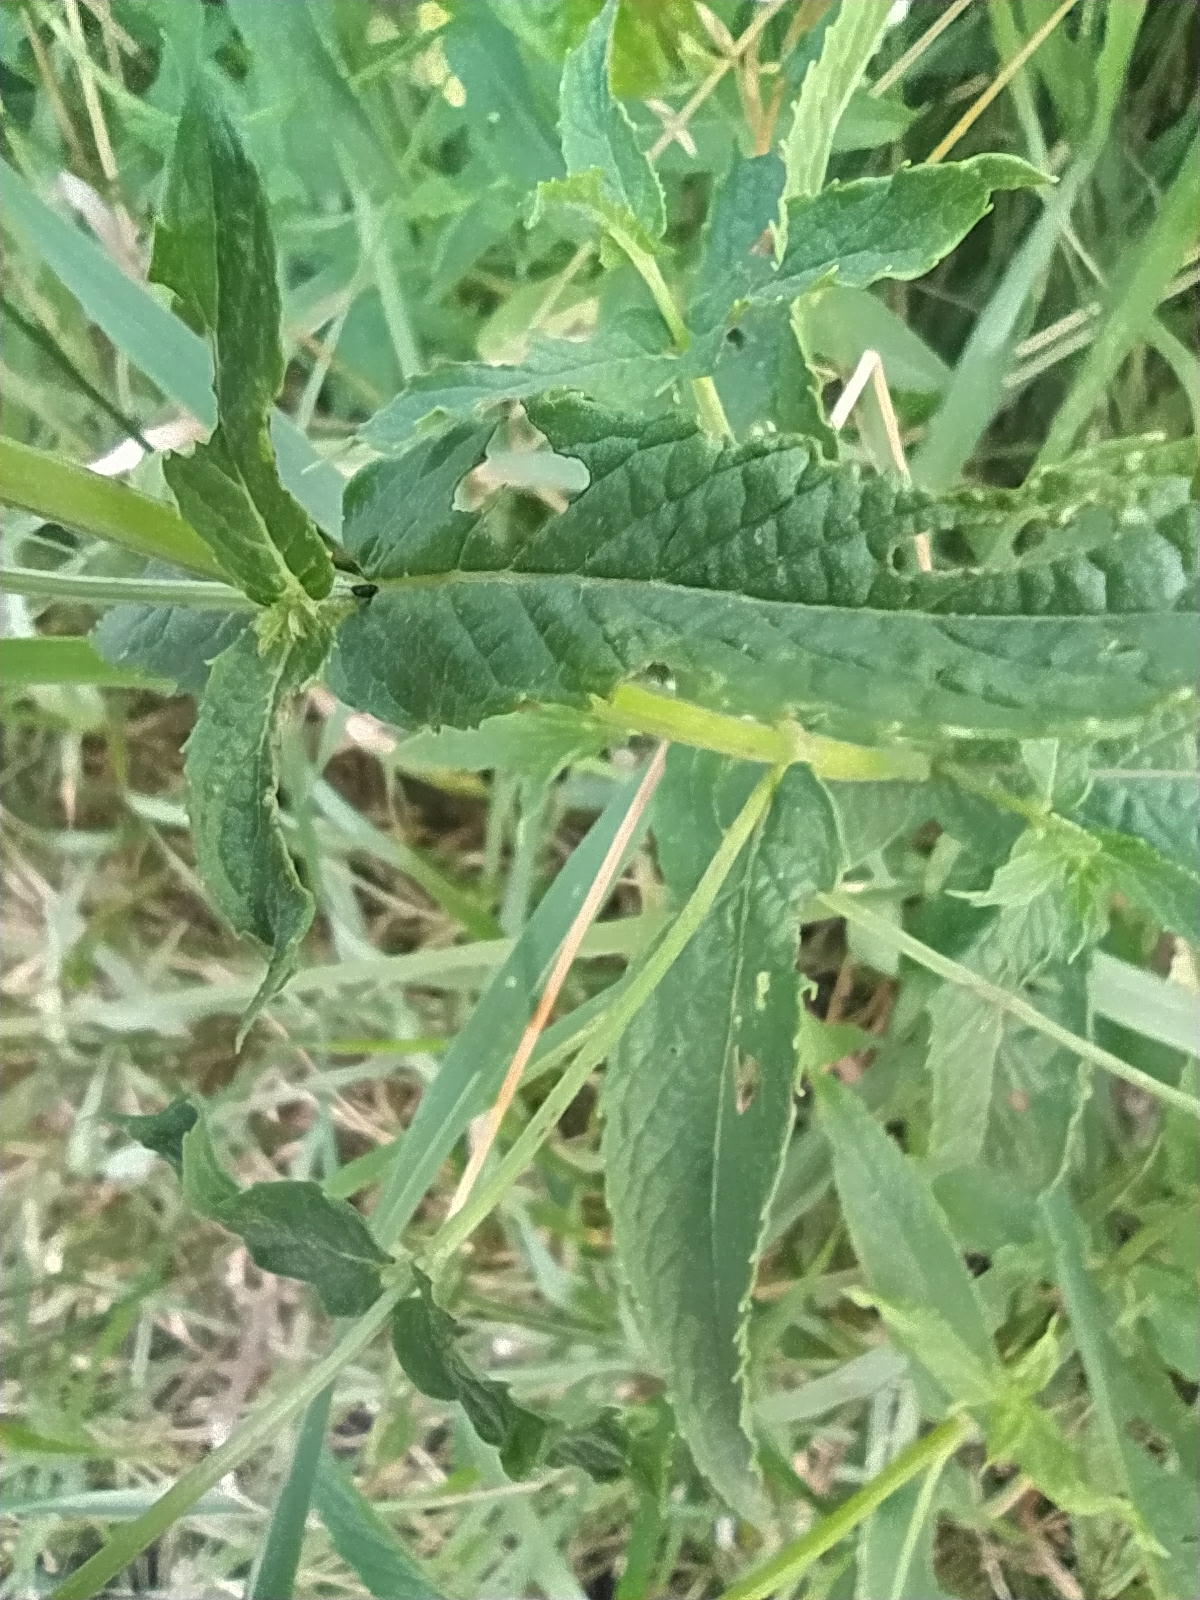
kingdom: Plantae
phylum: Tracheophyta
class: Magnoliopsida
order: Lamiales
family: Lamiaceae
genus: Mentha
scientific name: Mentha spicata
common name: Spearmint
